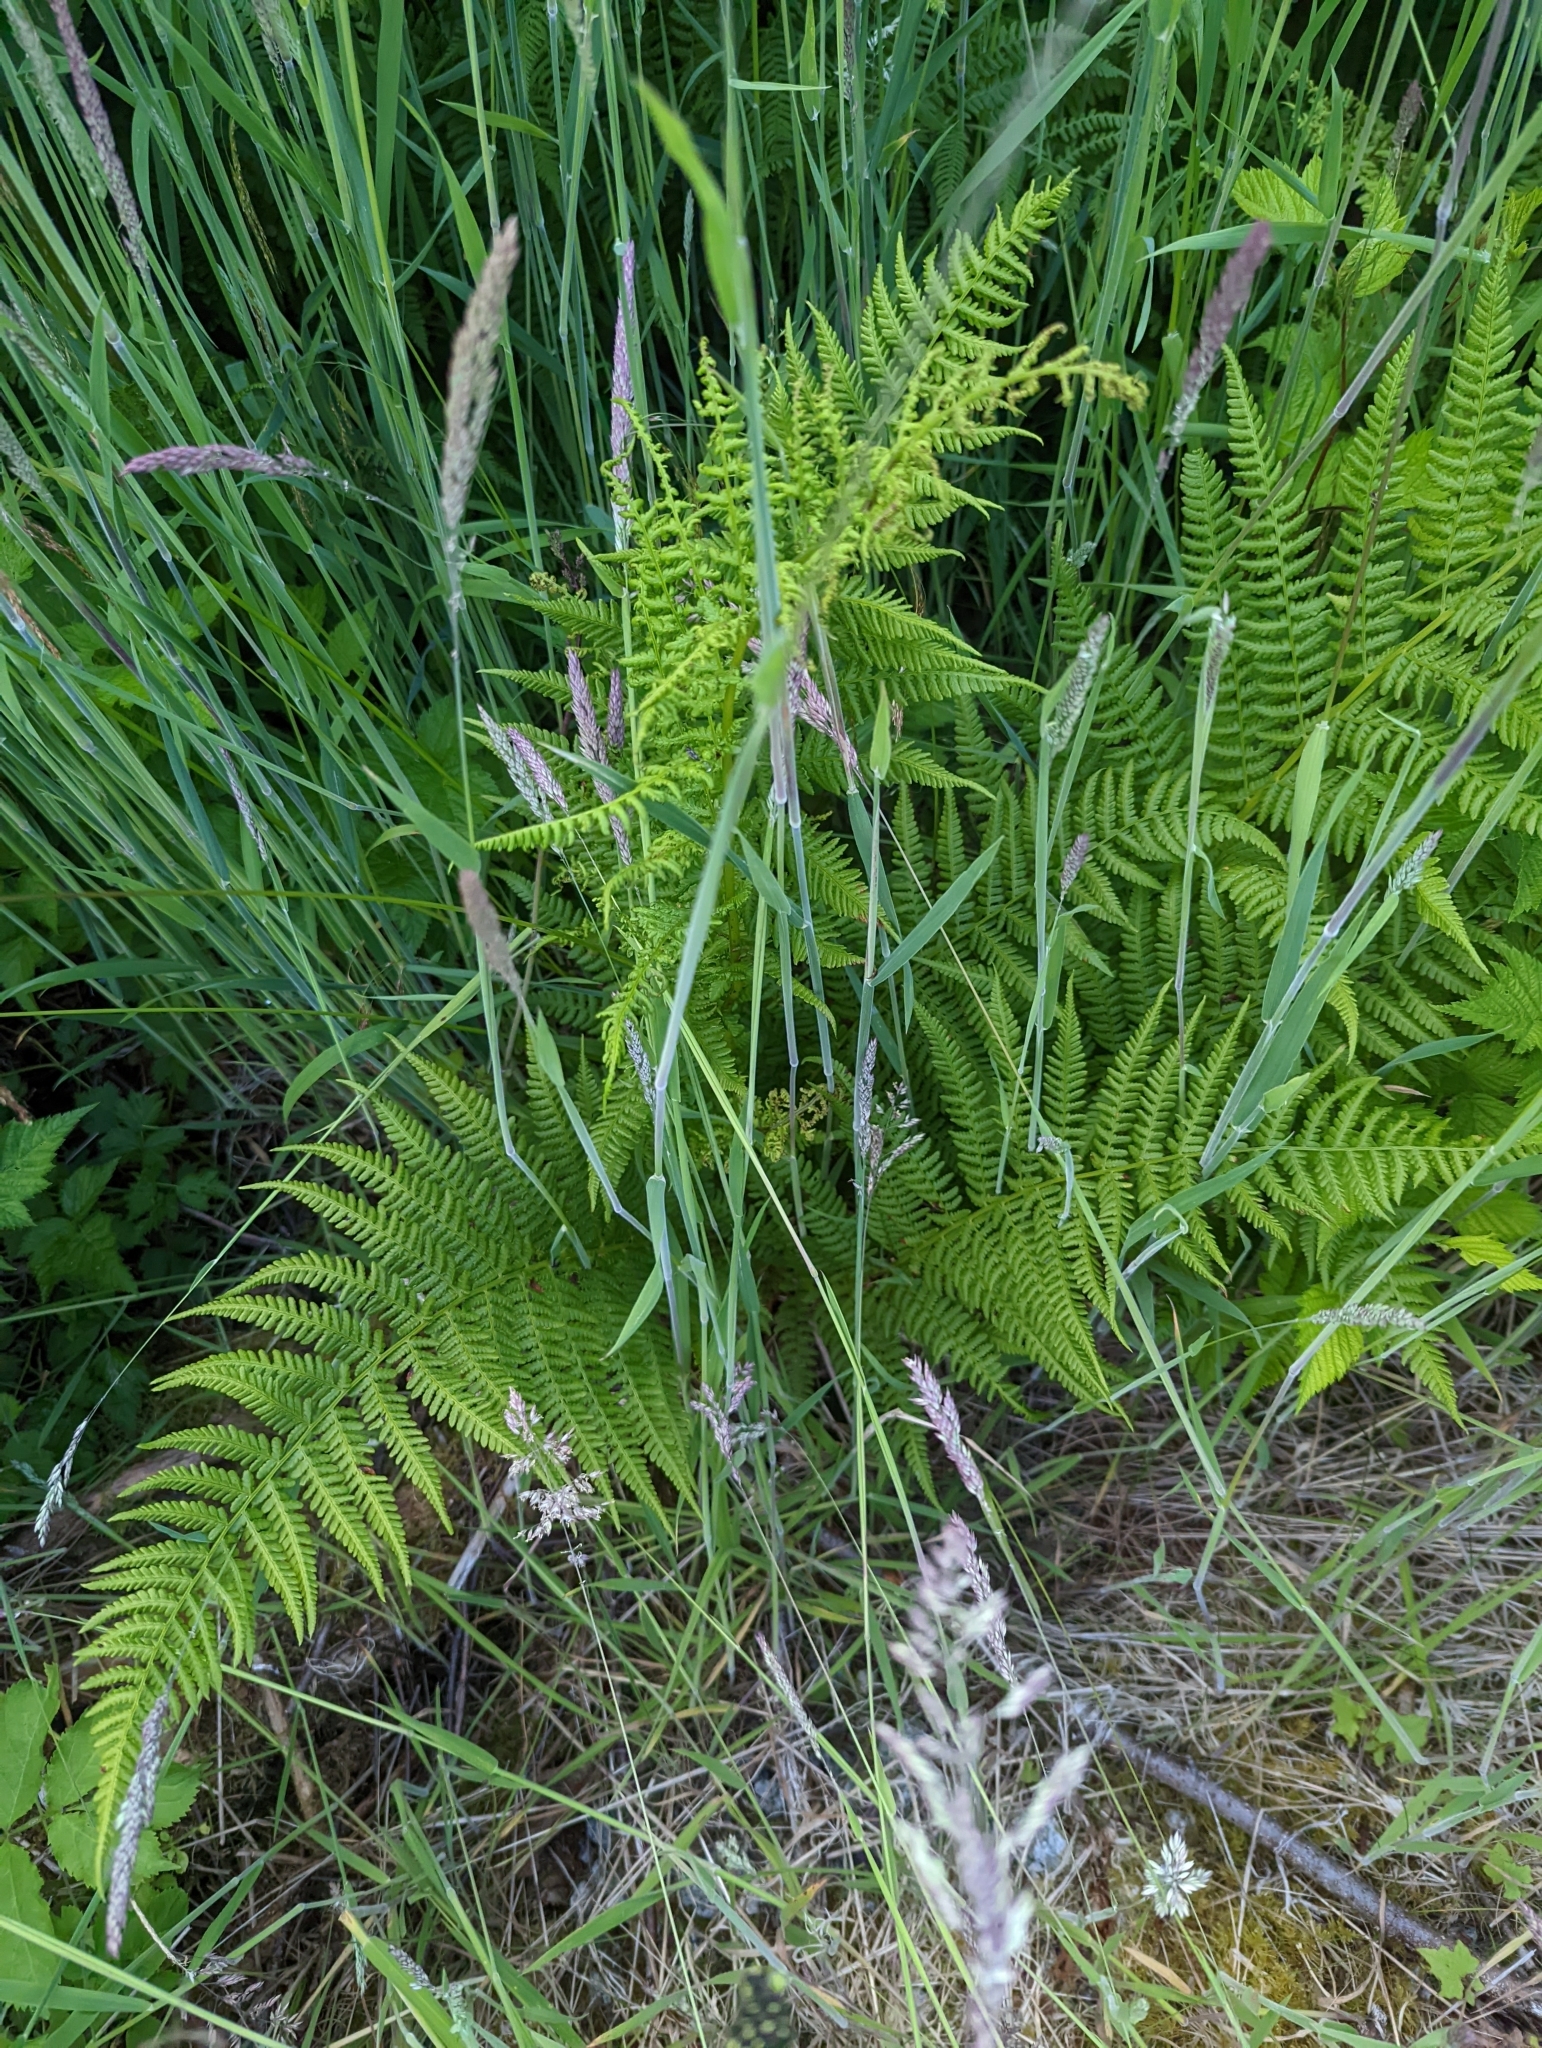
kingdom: Plantae
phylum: Tracheophyta
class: Polypodiopsida
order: Polypodiales
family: Athyriaceae
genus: Athyrium
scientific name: Athyrium filix-femina
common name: Lady fern
